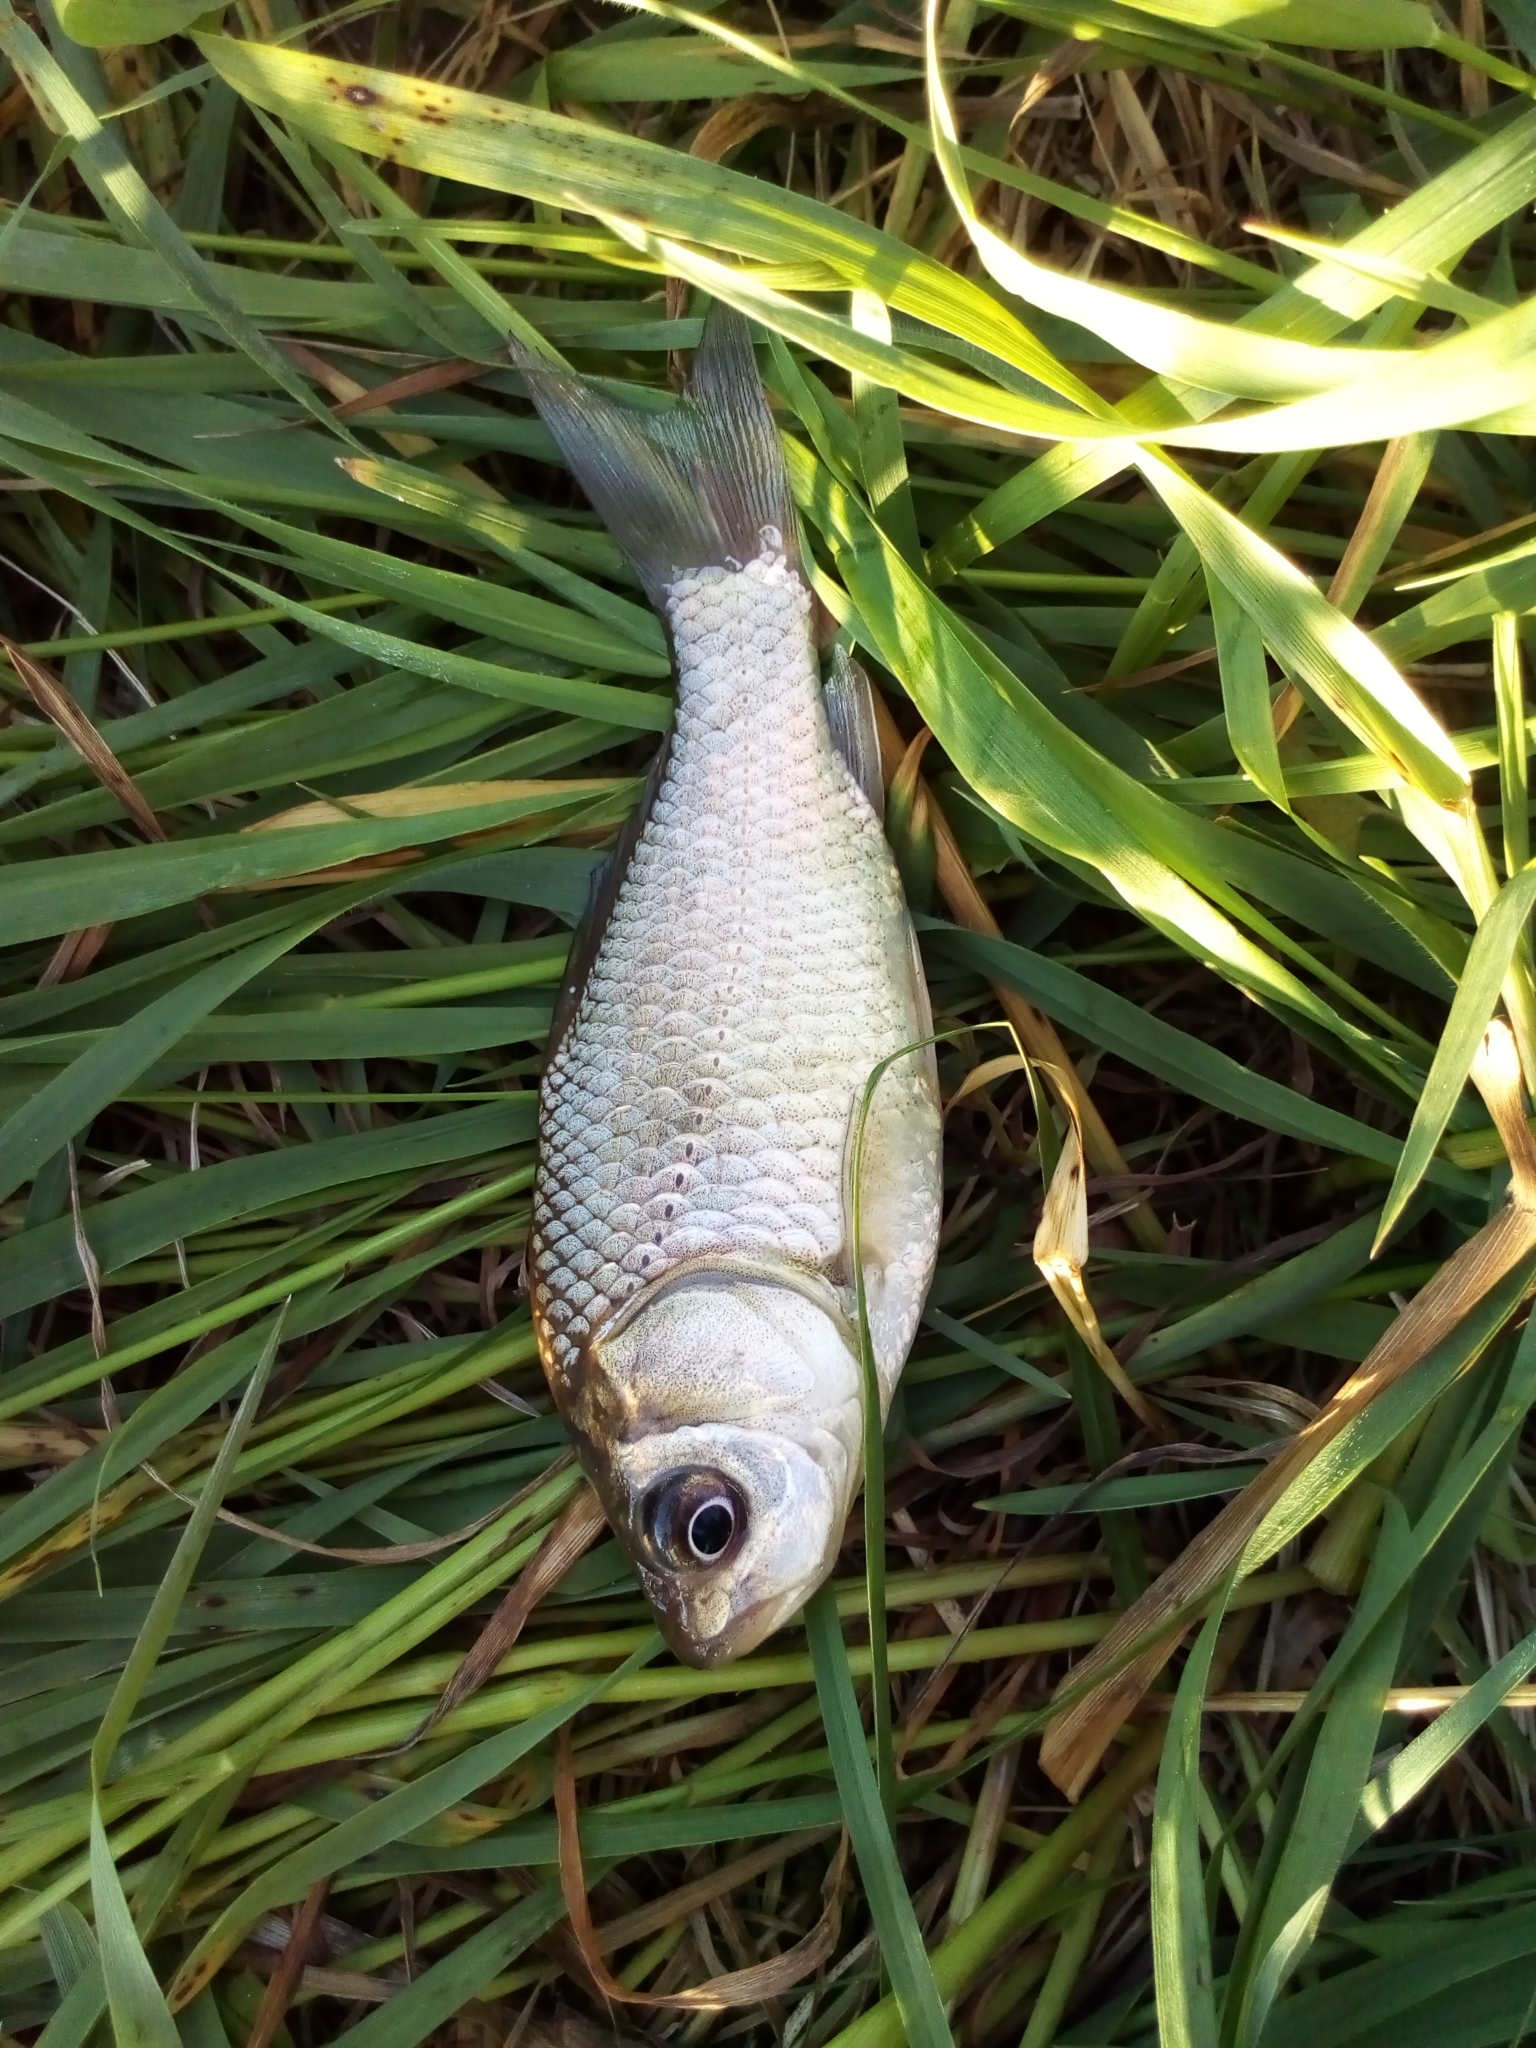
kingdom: Animalia
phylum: Chordata
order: Cypriniformes
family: Cyprinidae
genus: Carassius
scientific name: Carassius
